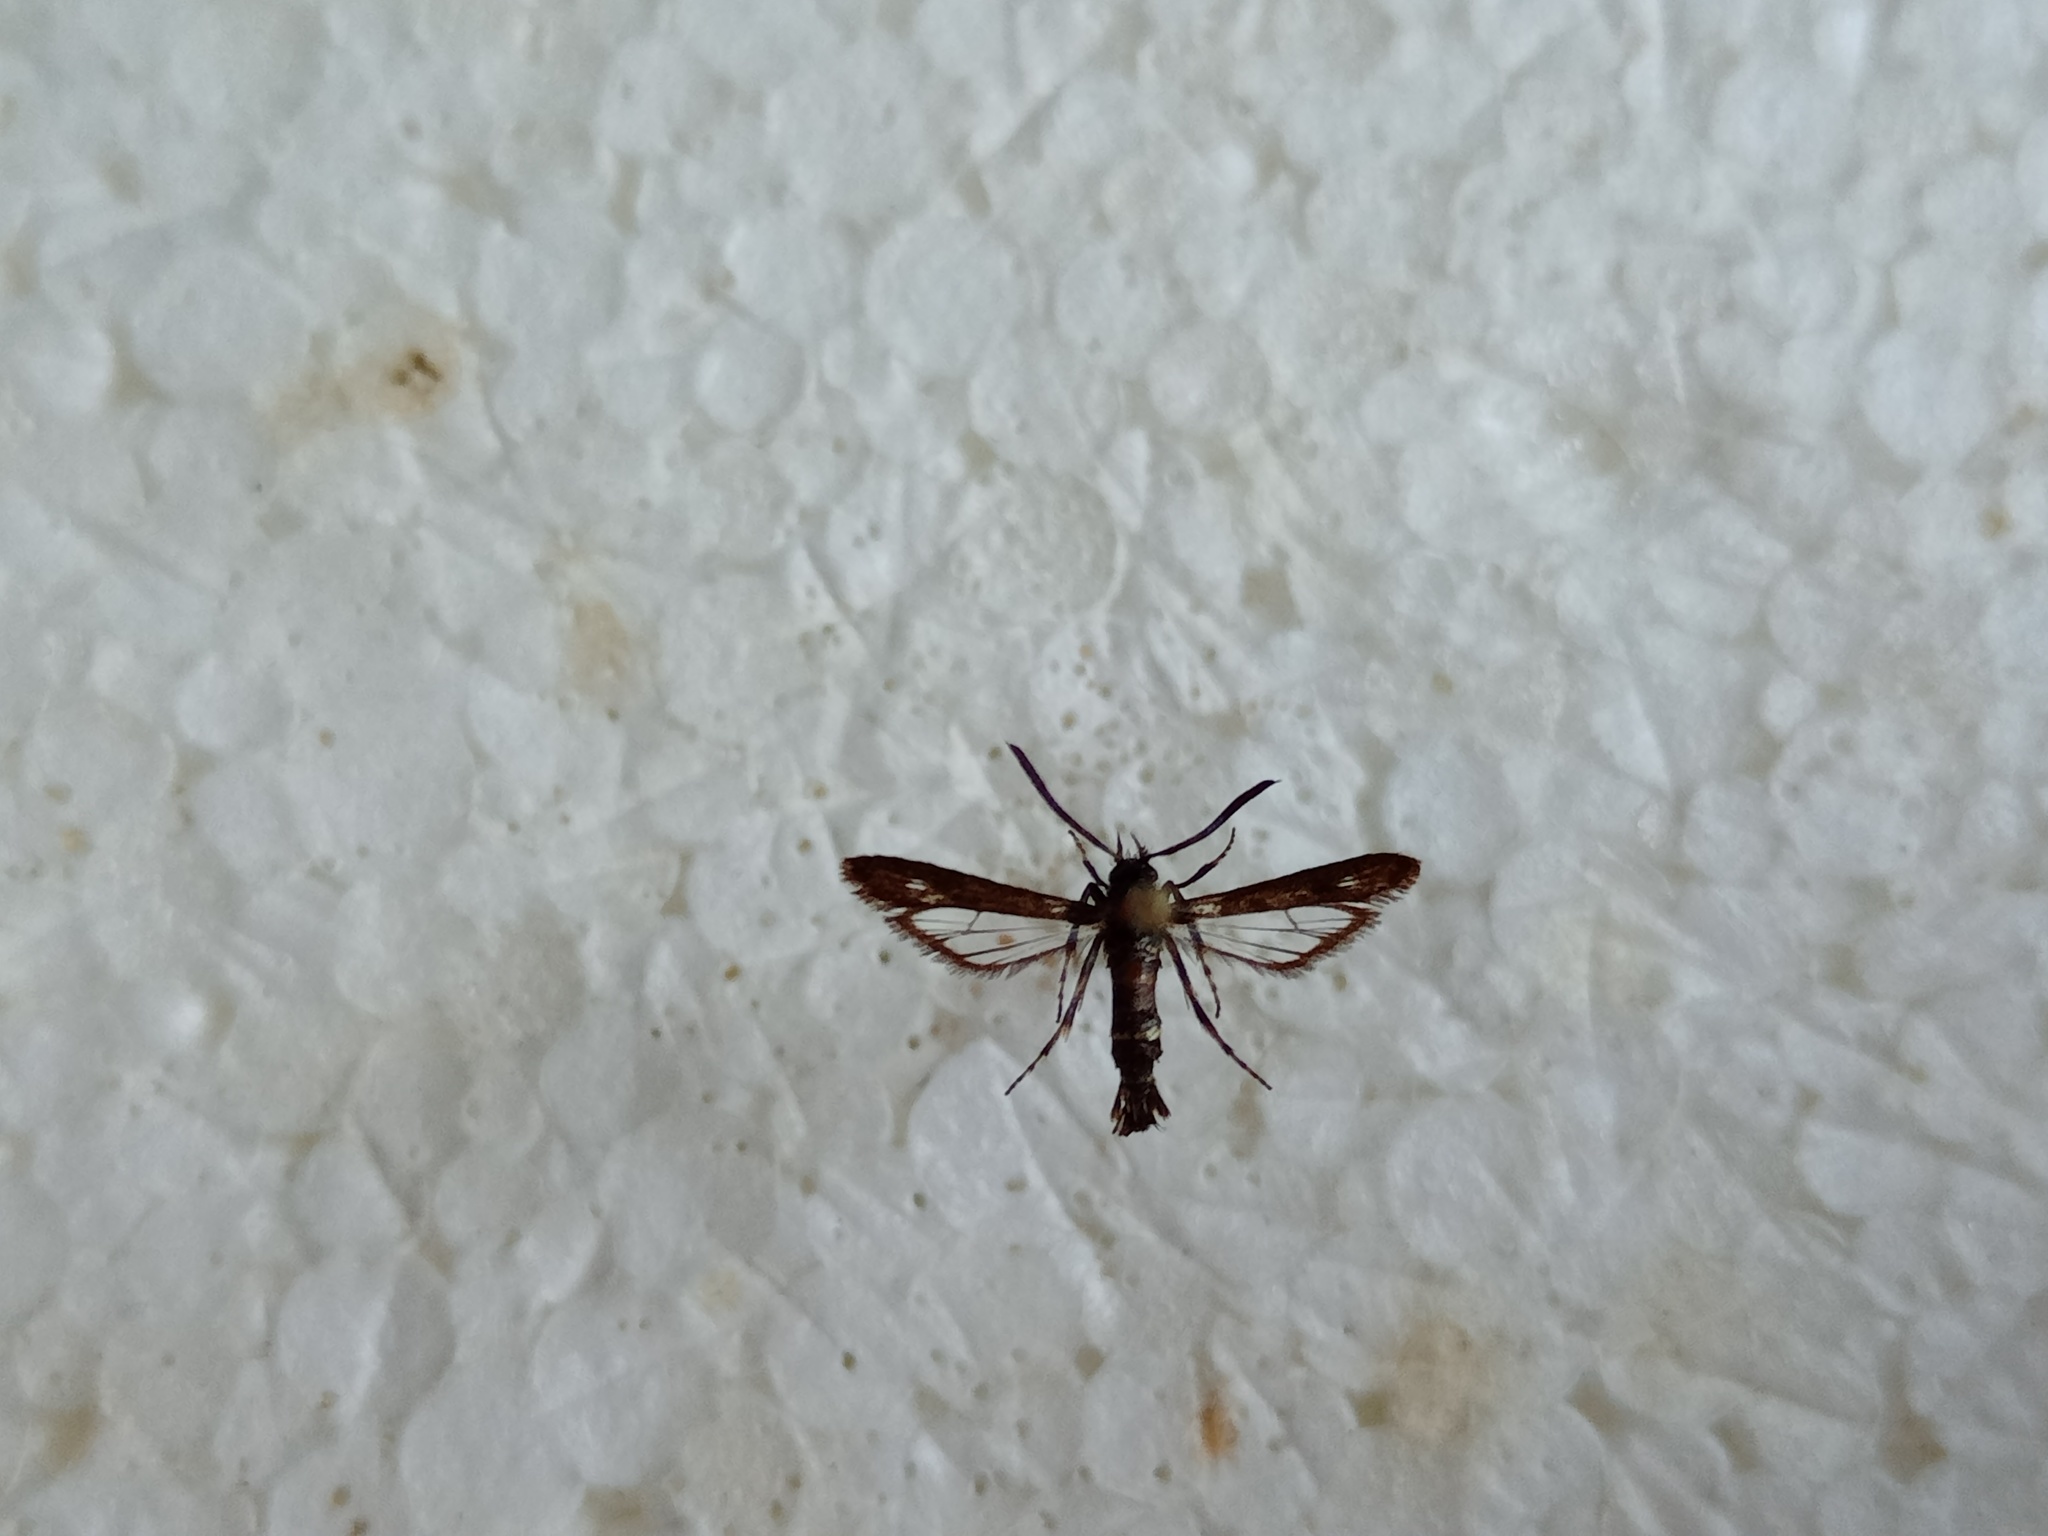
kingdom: Animalia
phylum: Arthropoda
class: Insecta
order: Lepidoptera
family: Sesiidae
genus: Sazonia
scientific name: Sazonia fenusaeformis
